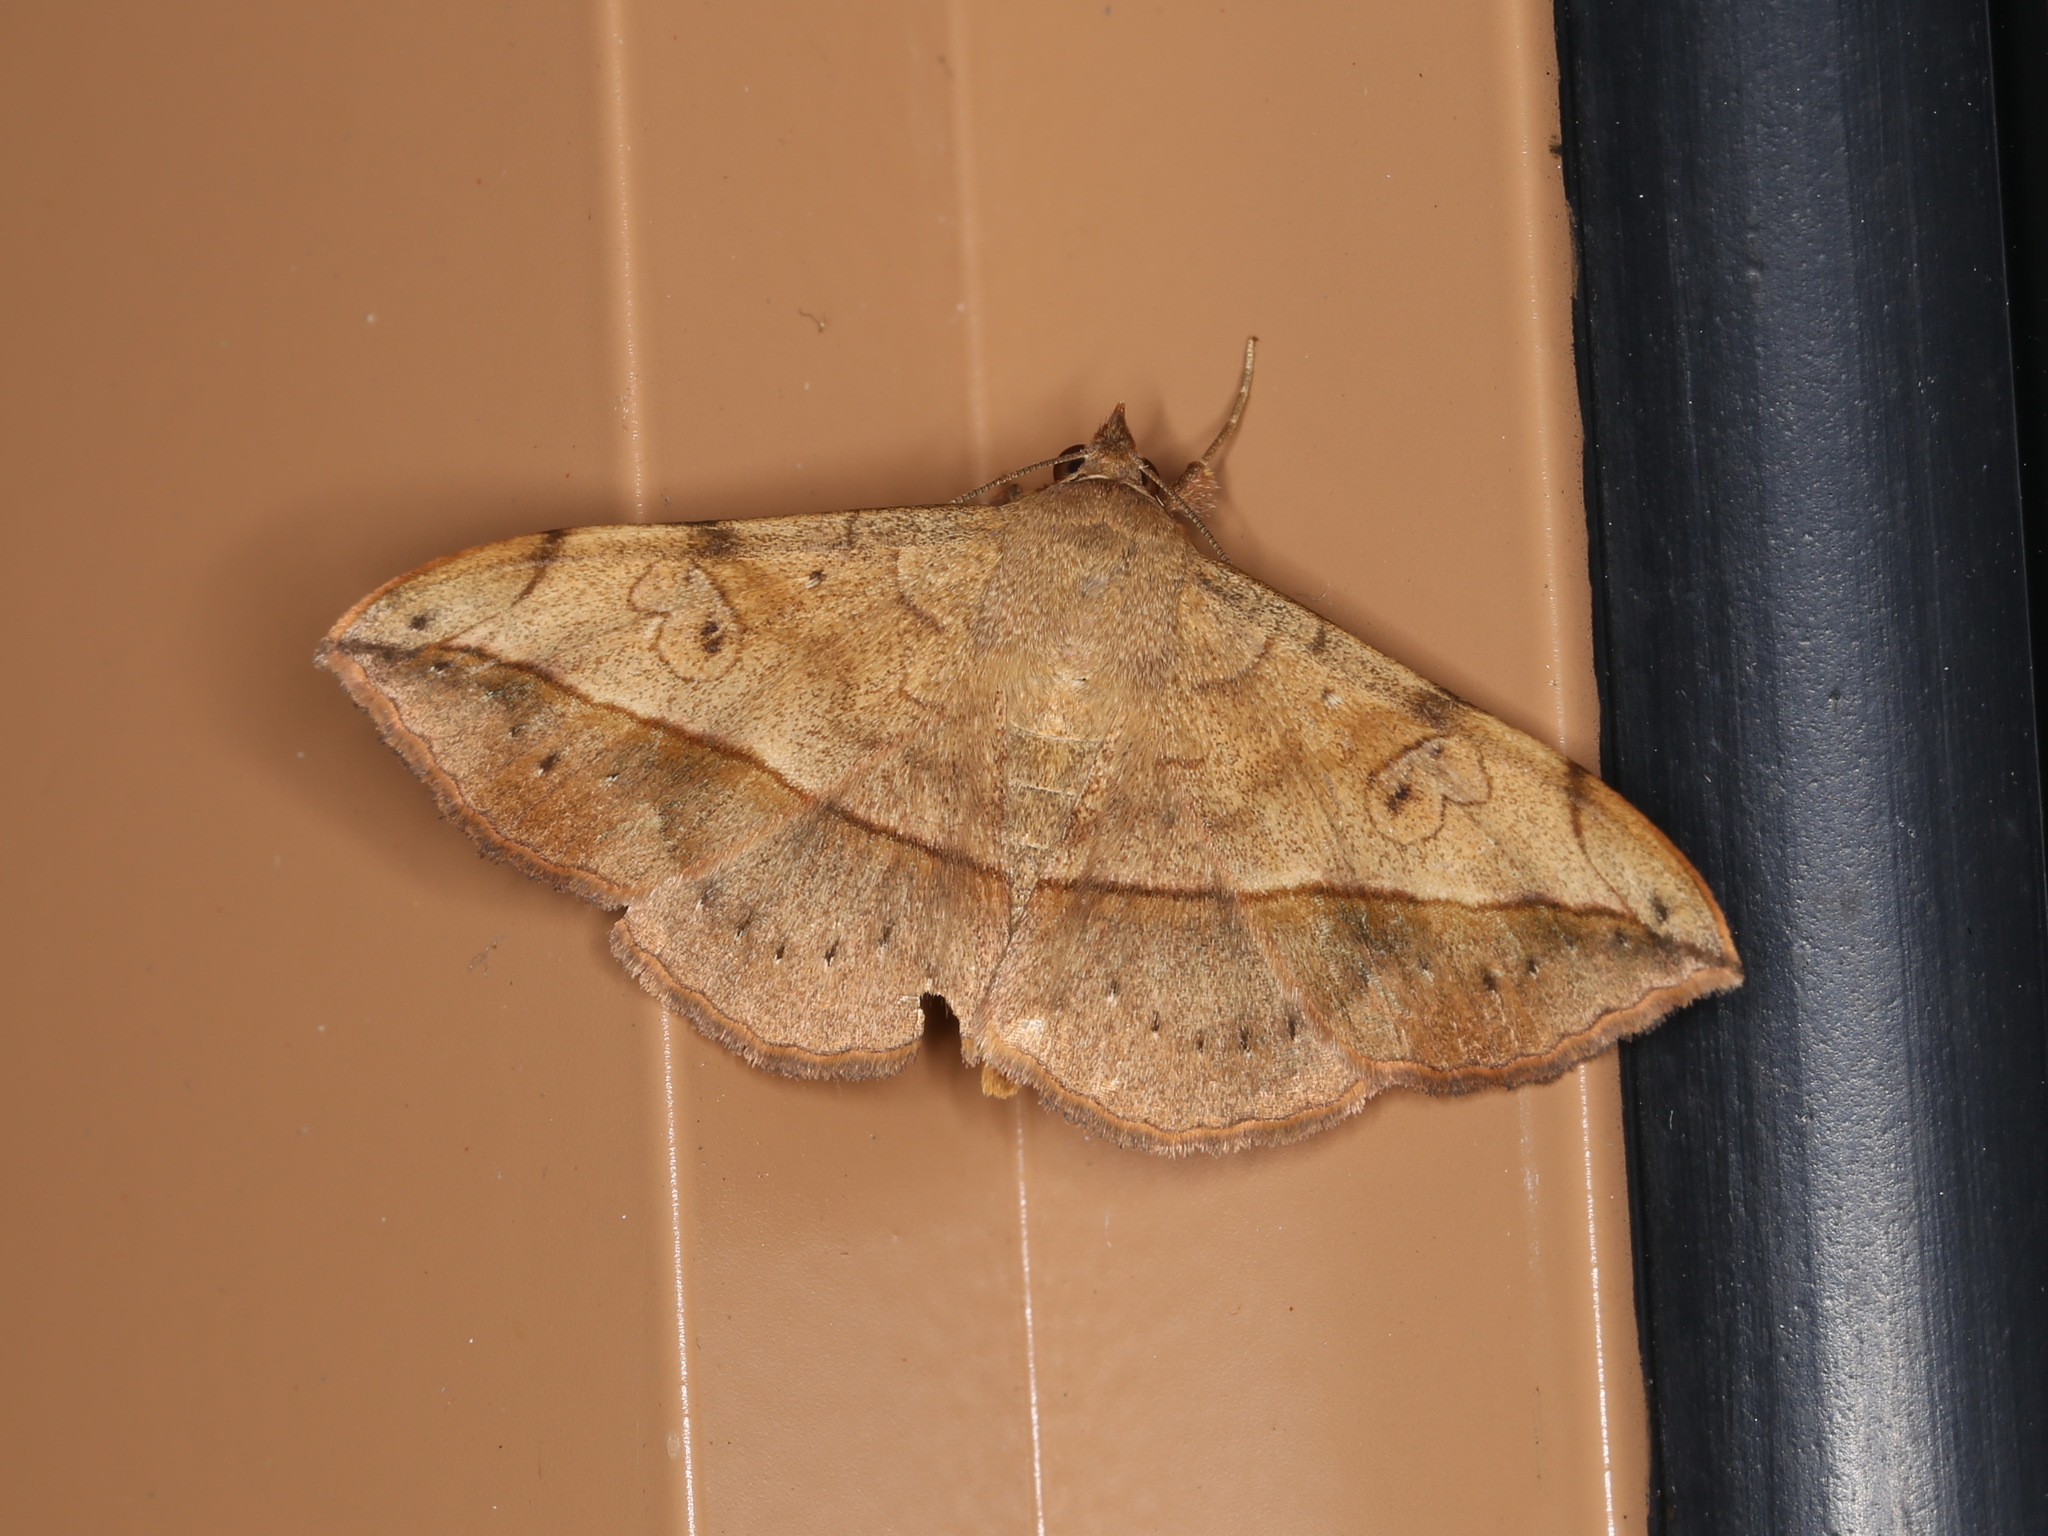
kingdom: Animalia
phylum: Arthropoda
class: Insecta
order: Lepidoptera
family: Erebidae
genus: Anticarsia
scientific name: Anticarsia irrorata
